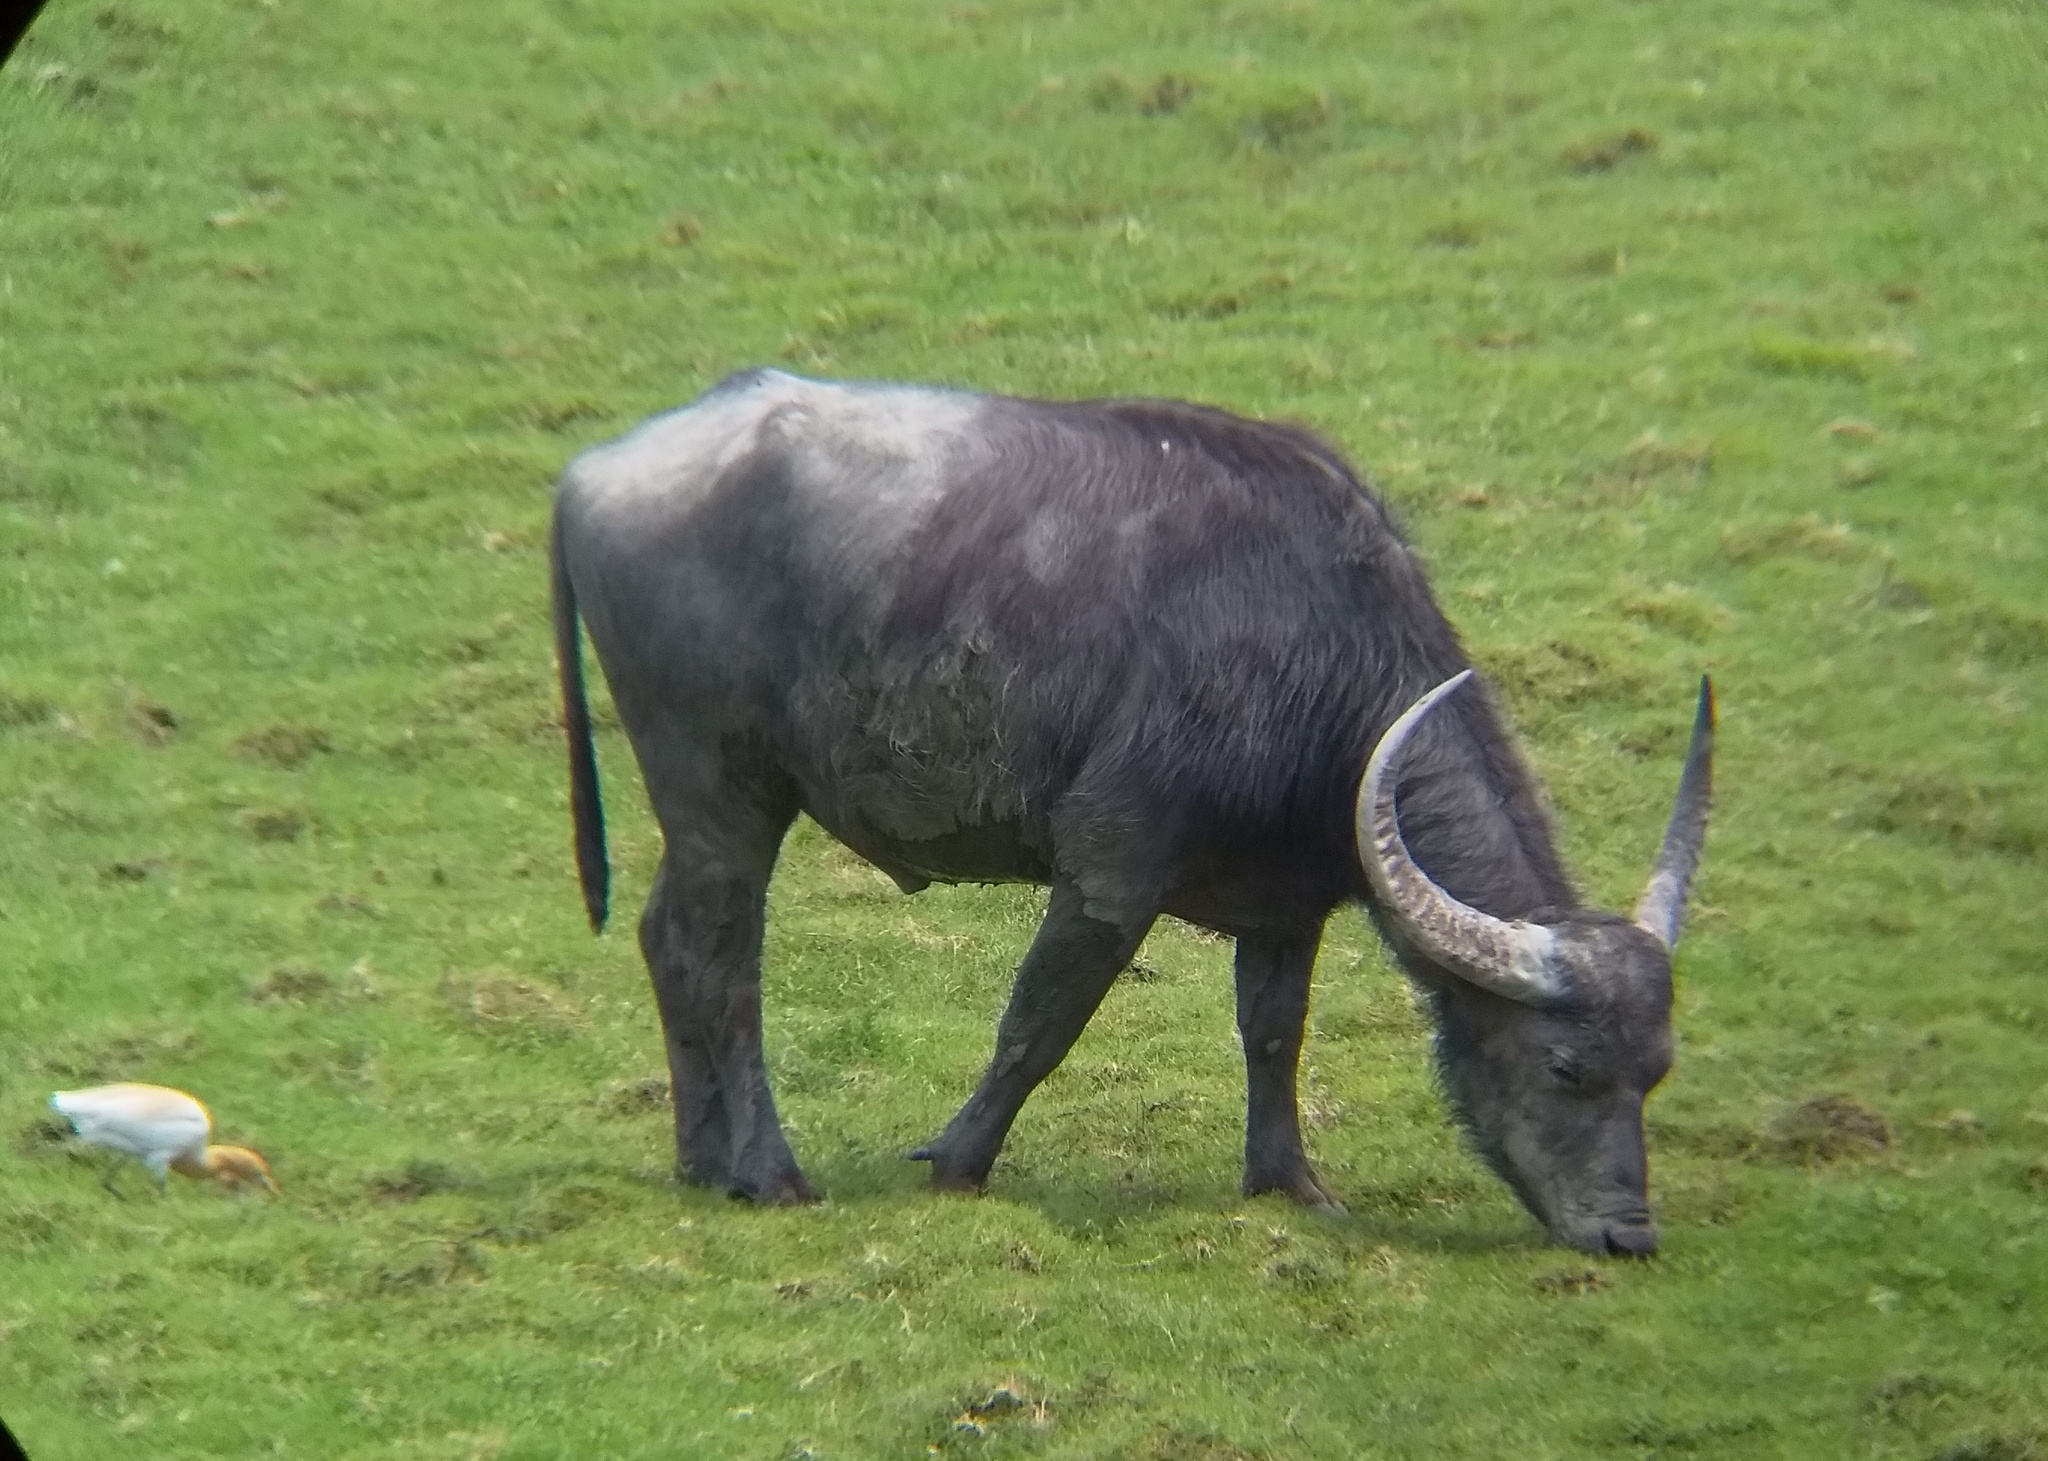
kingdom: Animalia
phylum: Chordata
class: Mammalia
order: Artiodactyla
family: Bovidae
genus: Bubalus
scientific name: Bubalus bubalis
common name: Water buffalo
